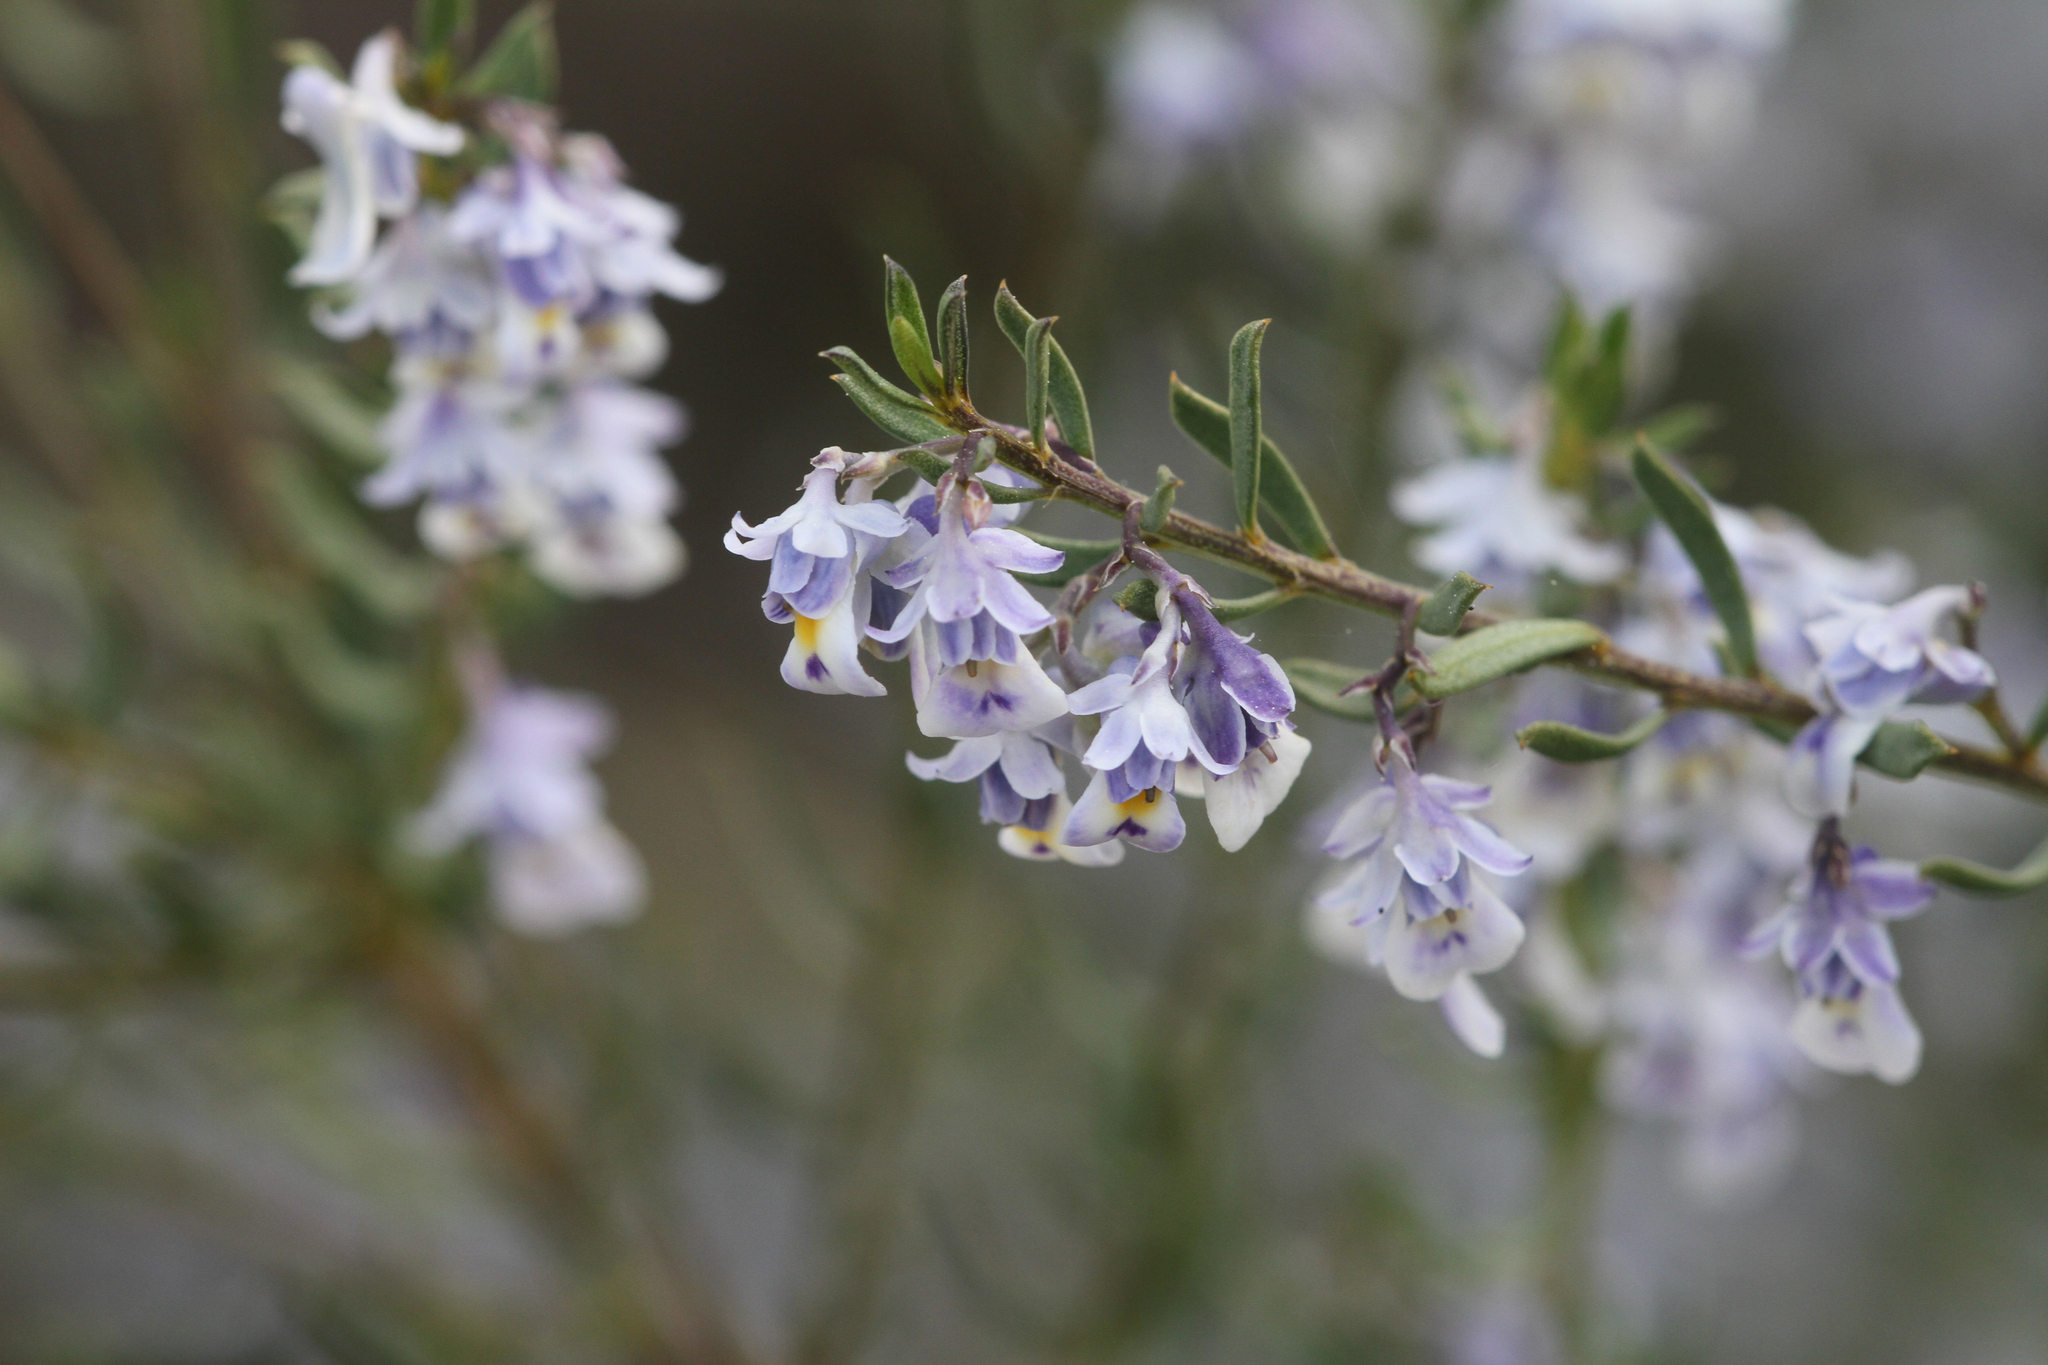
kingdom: Plantae
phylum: Tracheophyta
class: Magnoliopsida
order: Malpighiales
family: Violaceae
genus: Pigea
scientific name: Pigea floribunda
